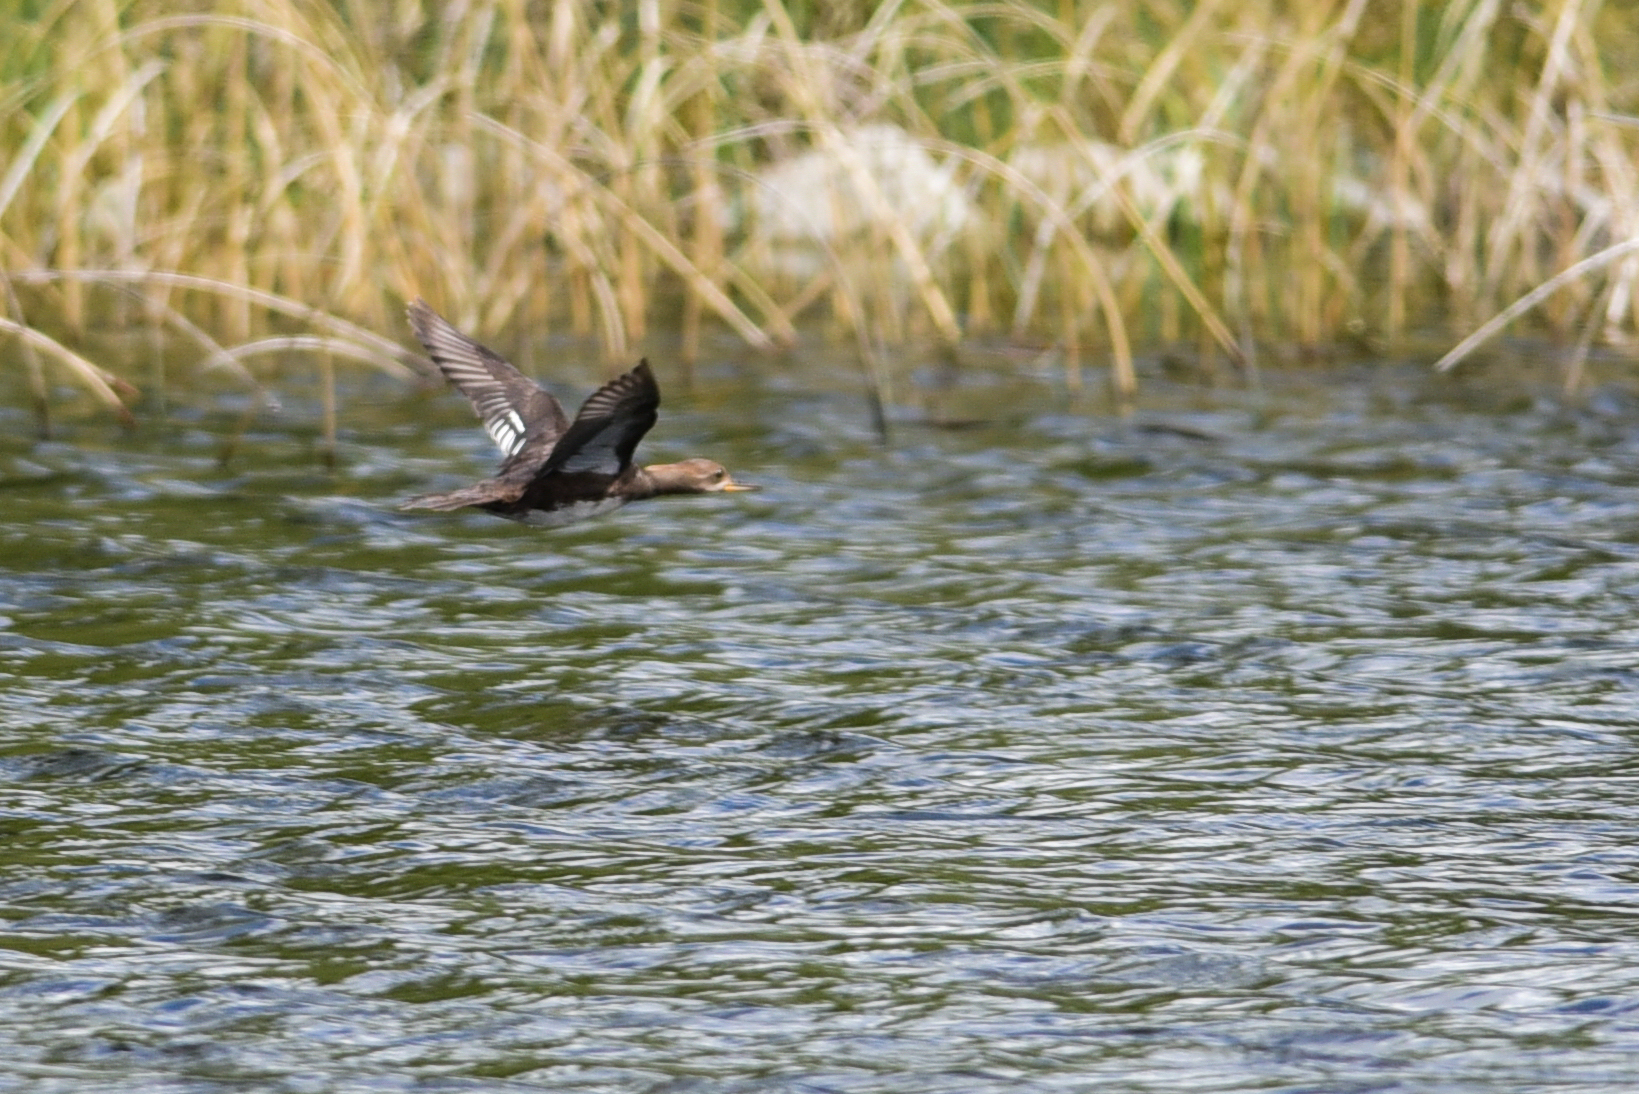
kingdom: Animalia
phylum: Chordata
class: Aves
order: Anseriformes
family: Anatidae
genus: Lophodytes
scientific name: Lophodytes cucullatus
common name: Hooded merganser
